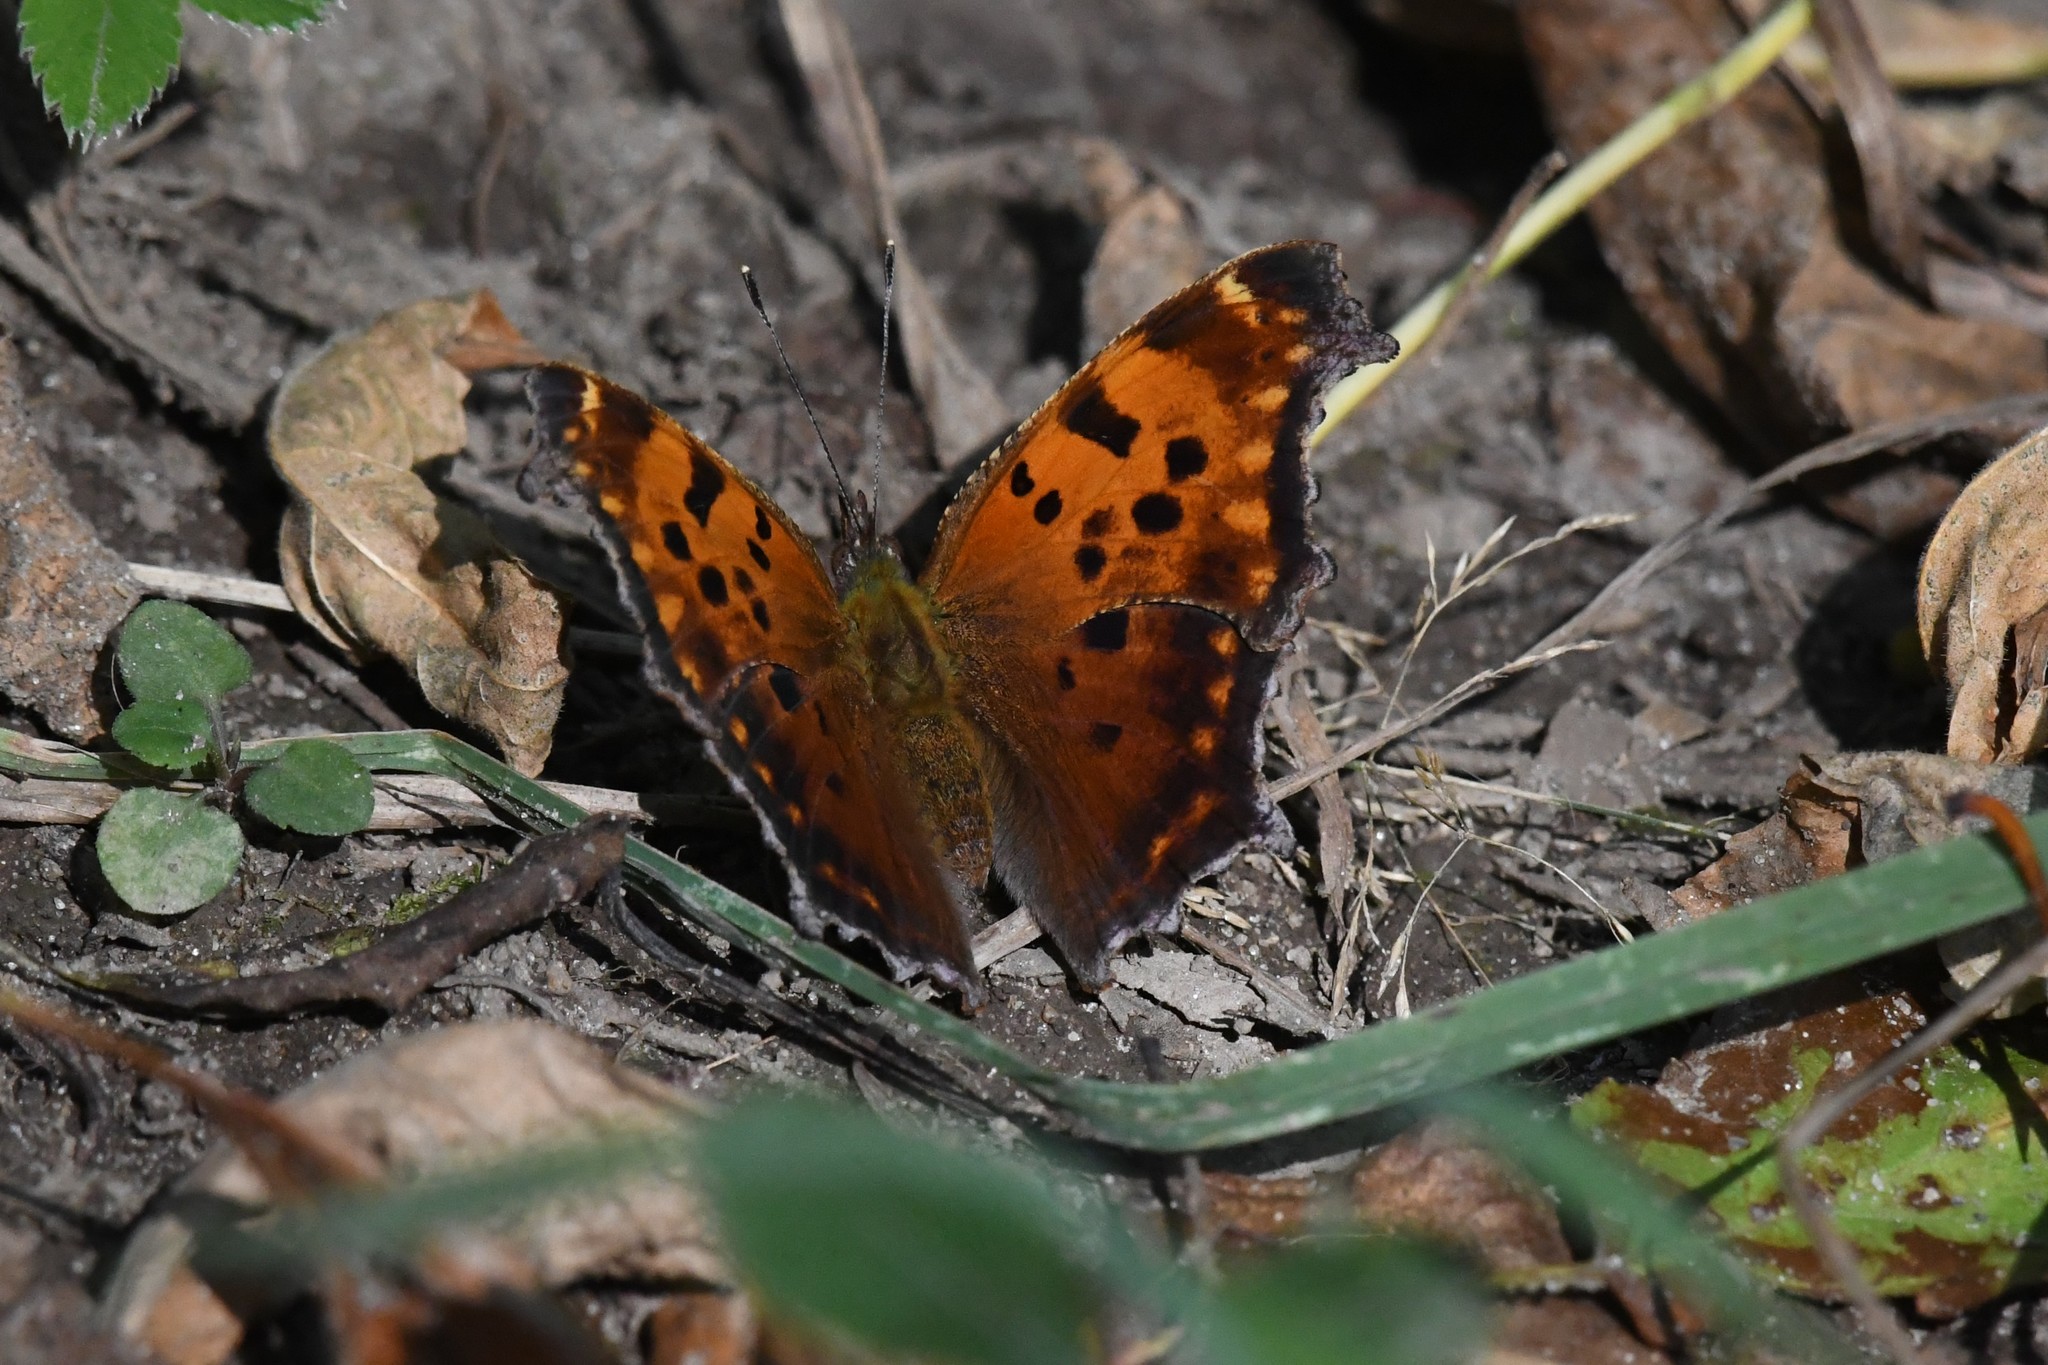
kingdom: Animalia
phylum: Arthropoda
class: Insecta
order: Lepidoptera
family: Nymphalidae
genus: Polygonia
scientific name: Polygonia comma
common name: Eastern comma
